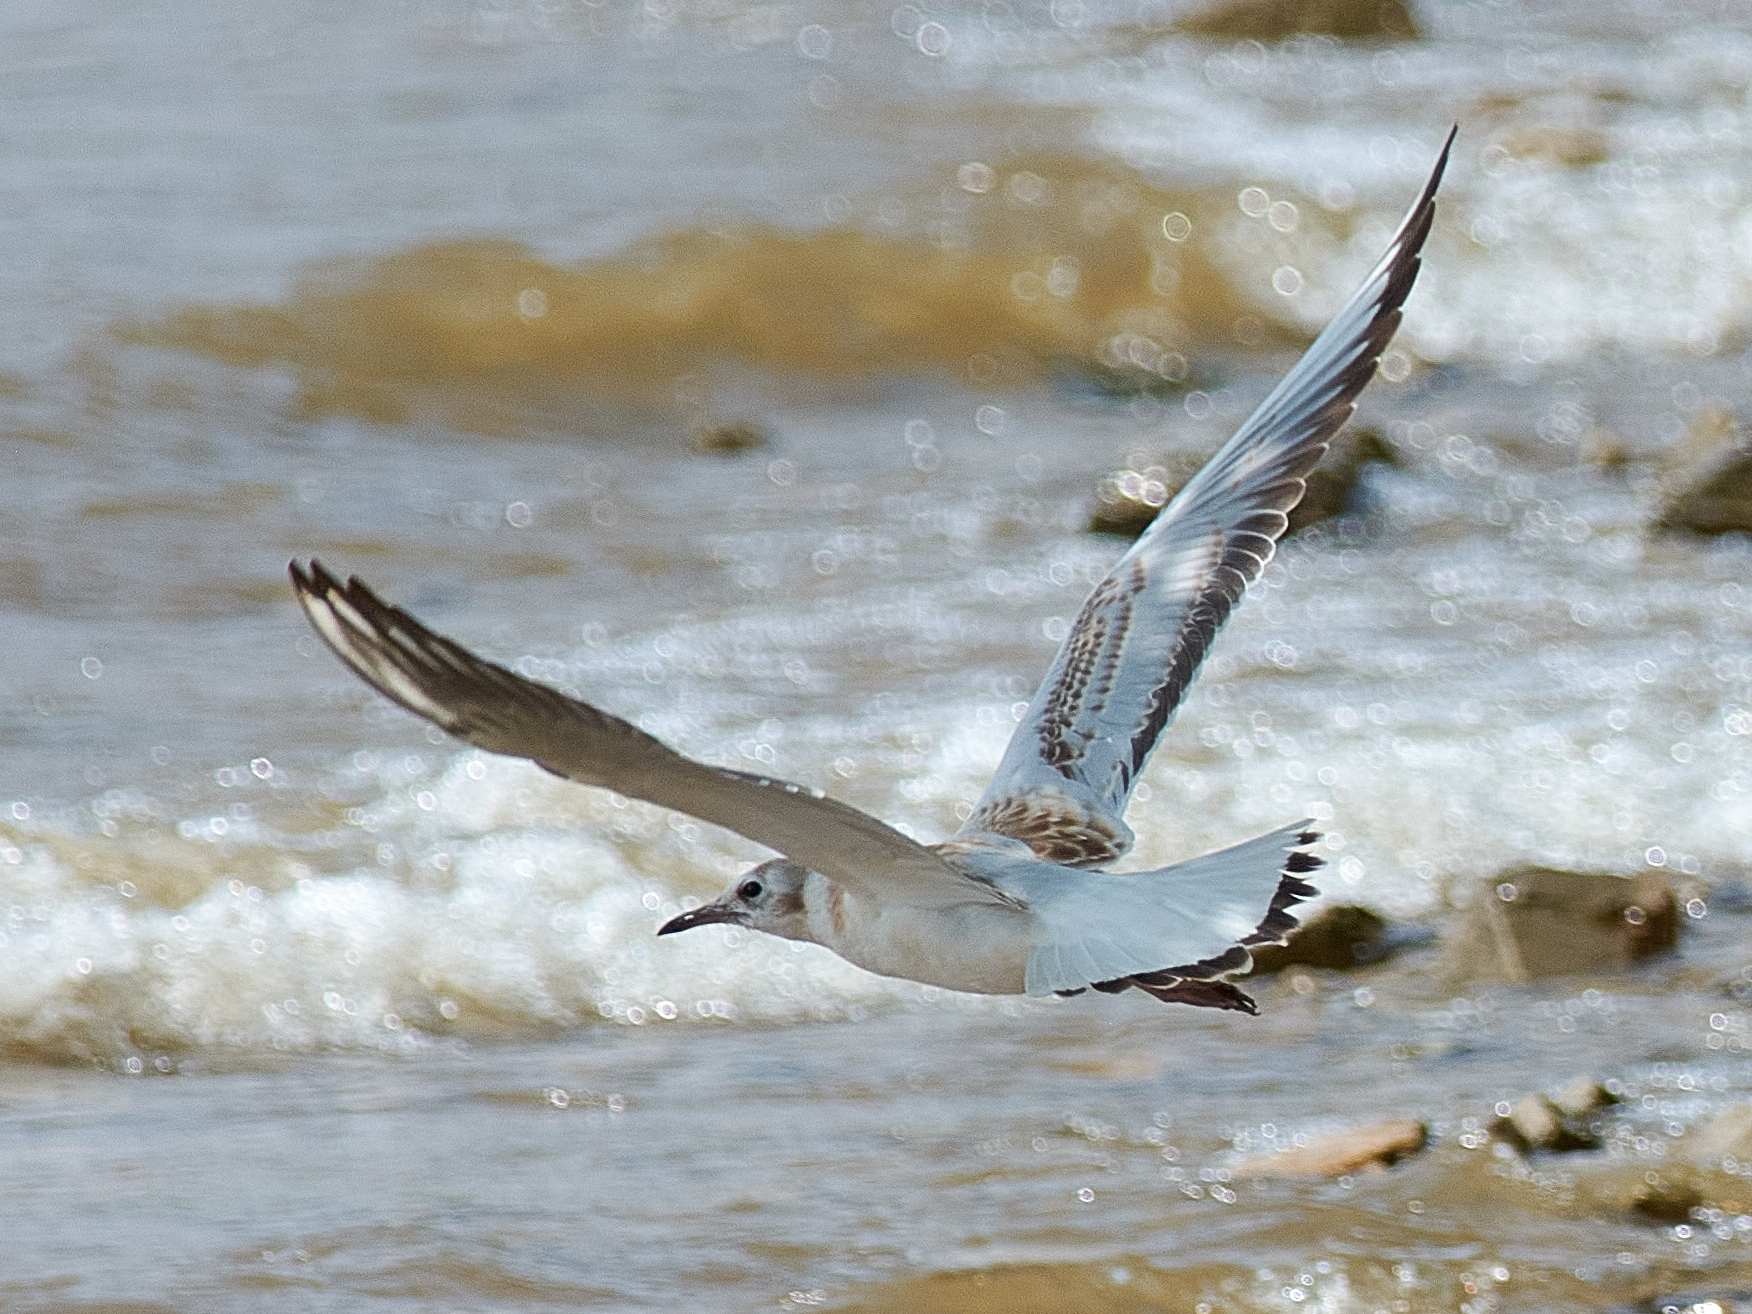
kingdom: Animalia
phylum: Chordata
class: Aves
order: Charadriiformes
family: Laridae
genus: Chroicocephalus
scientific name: Chroicocephalus ridibundus
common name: Black-headed gull
